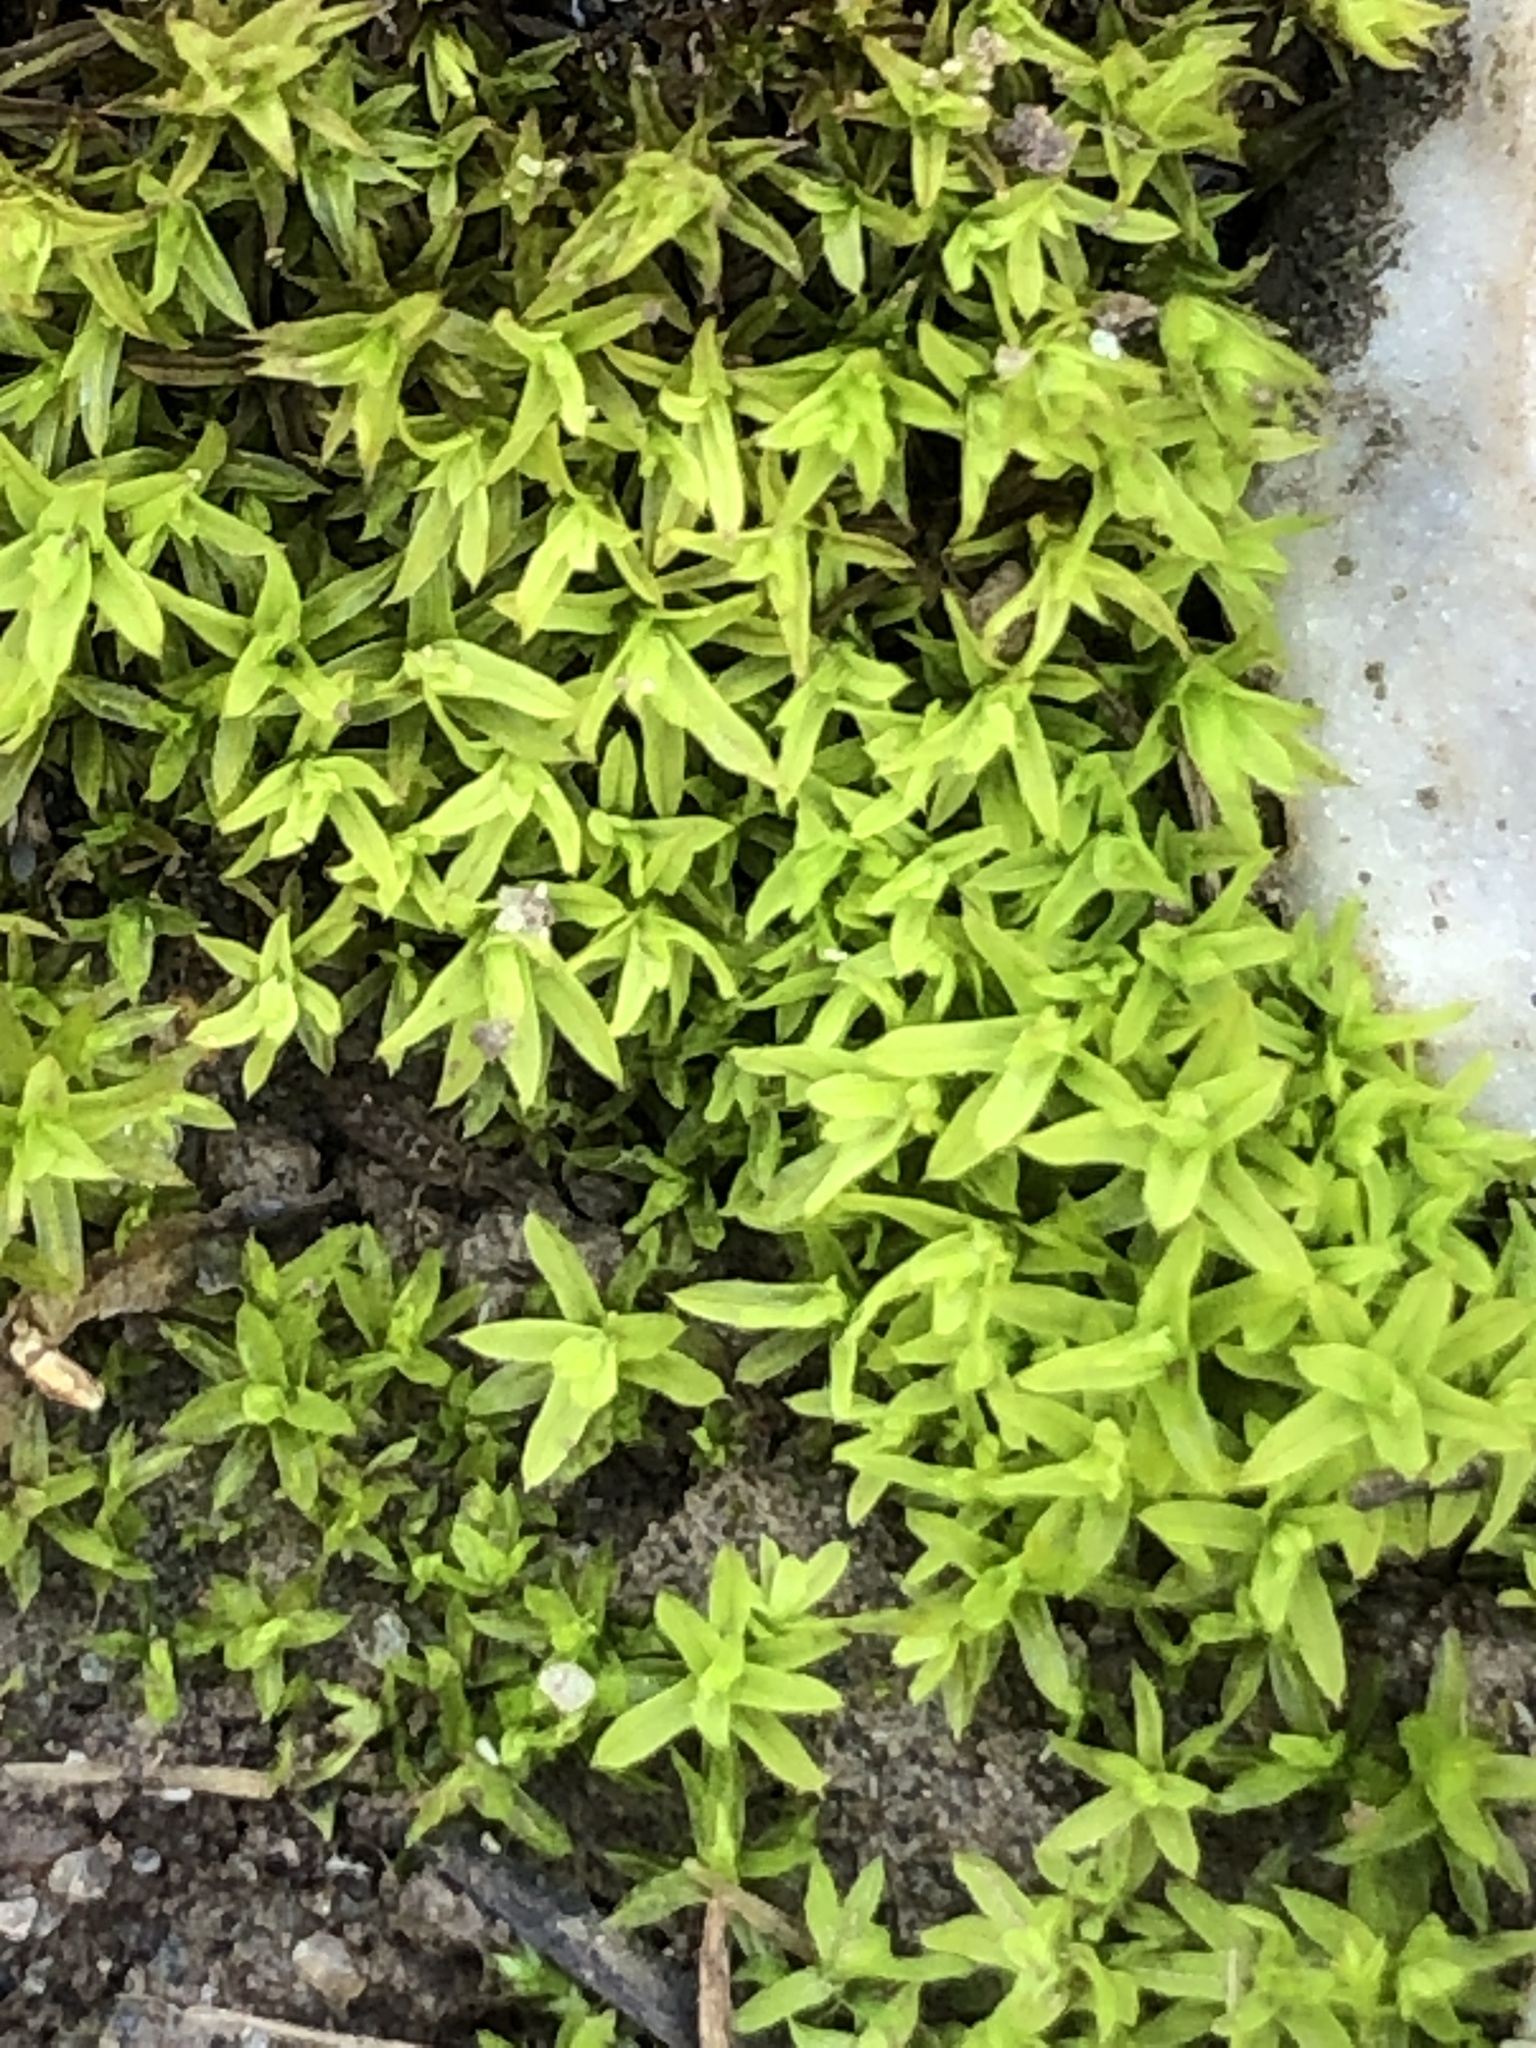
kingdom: Plantae
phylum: Bryophyta
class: Bryopsida
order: Pottiales
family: Pottiaceae
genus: Barbula
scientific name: Barbula unguiculata
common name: Prickly beard moss
